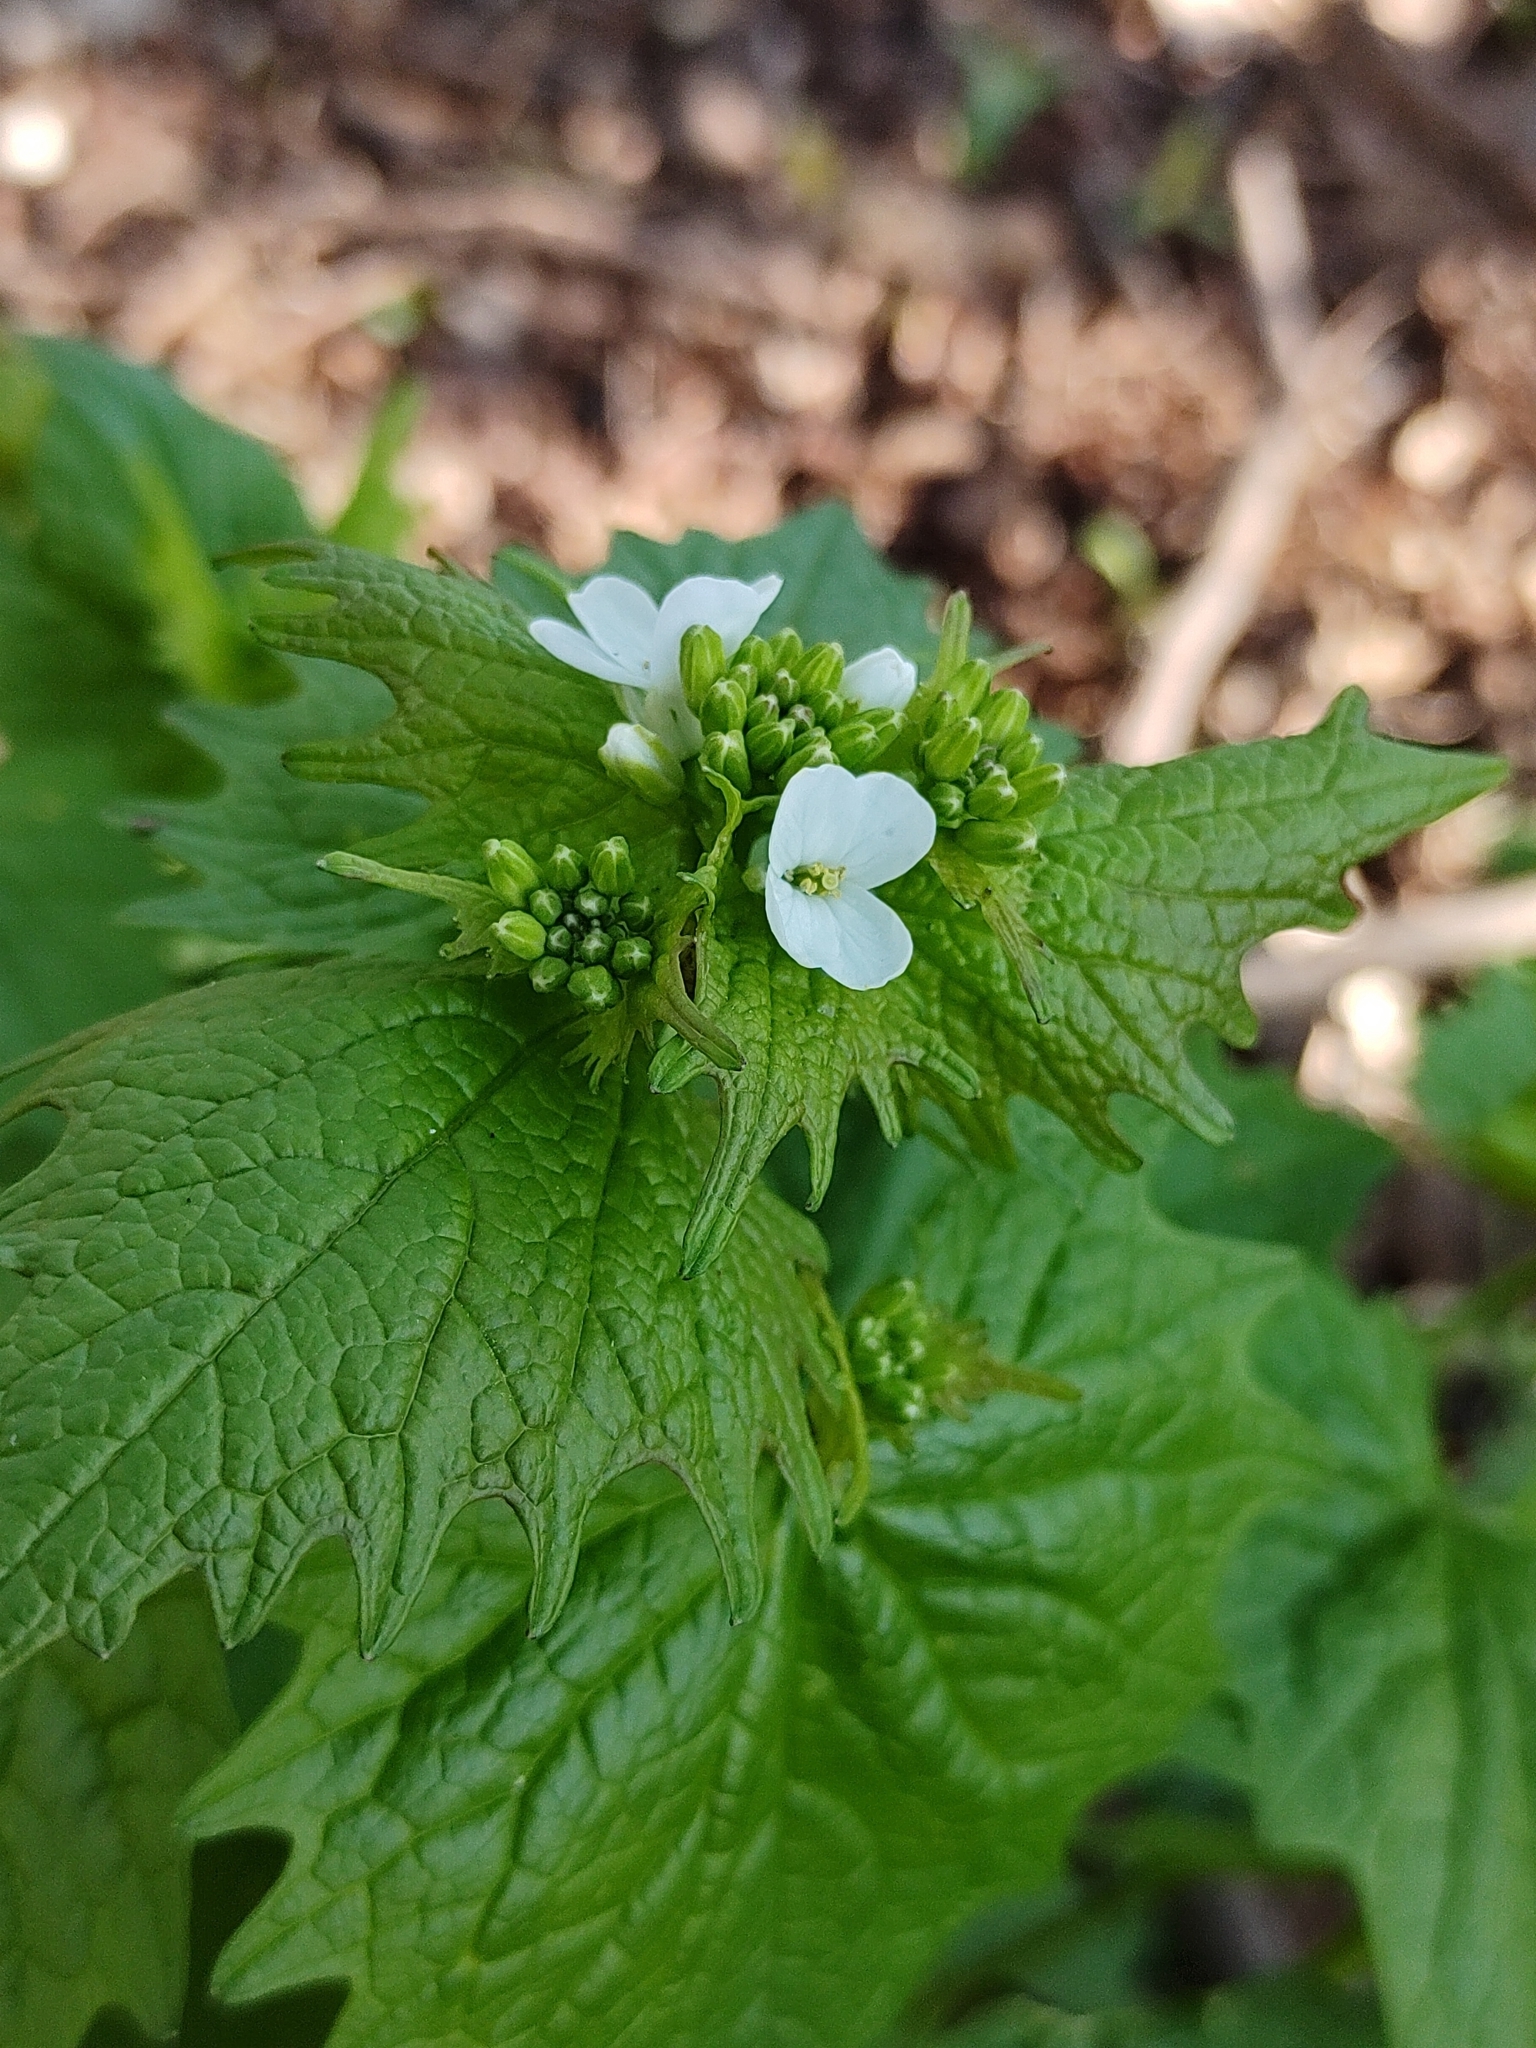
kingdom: Plantae
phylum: Tracheophyta
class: Magnoliopsida
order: Brassicales
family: Brassicaceae
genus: Alliaria
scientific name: Alliaria petiolata
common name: Garlic mustard
